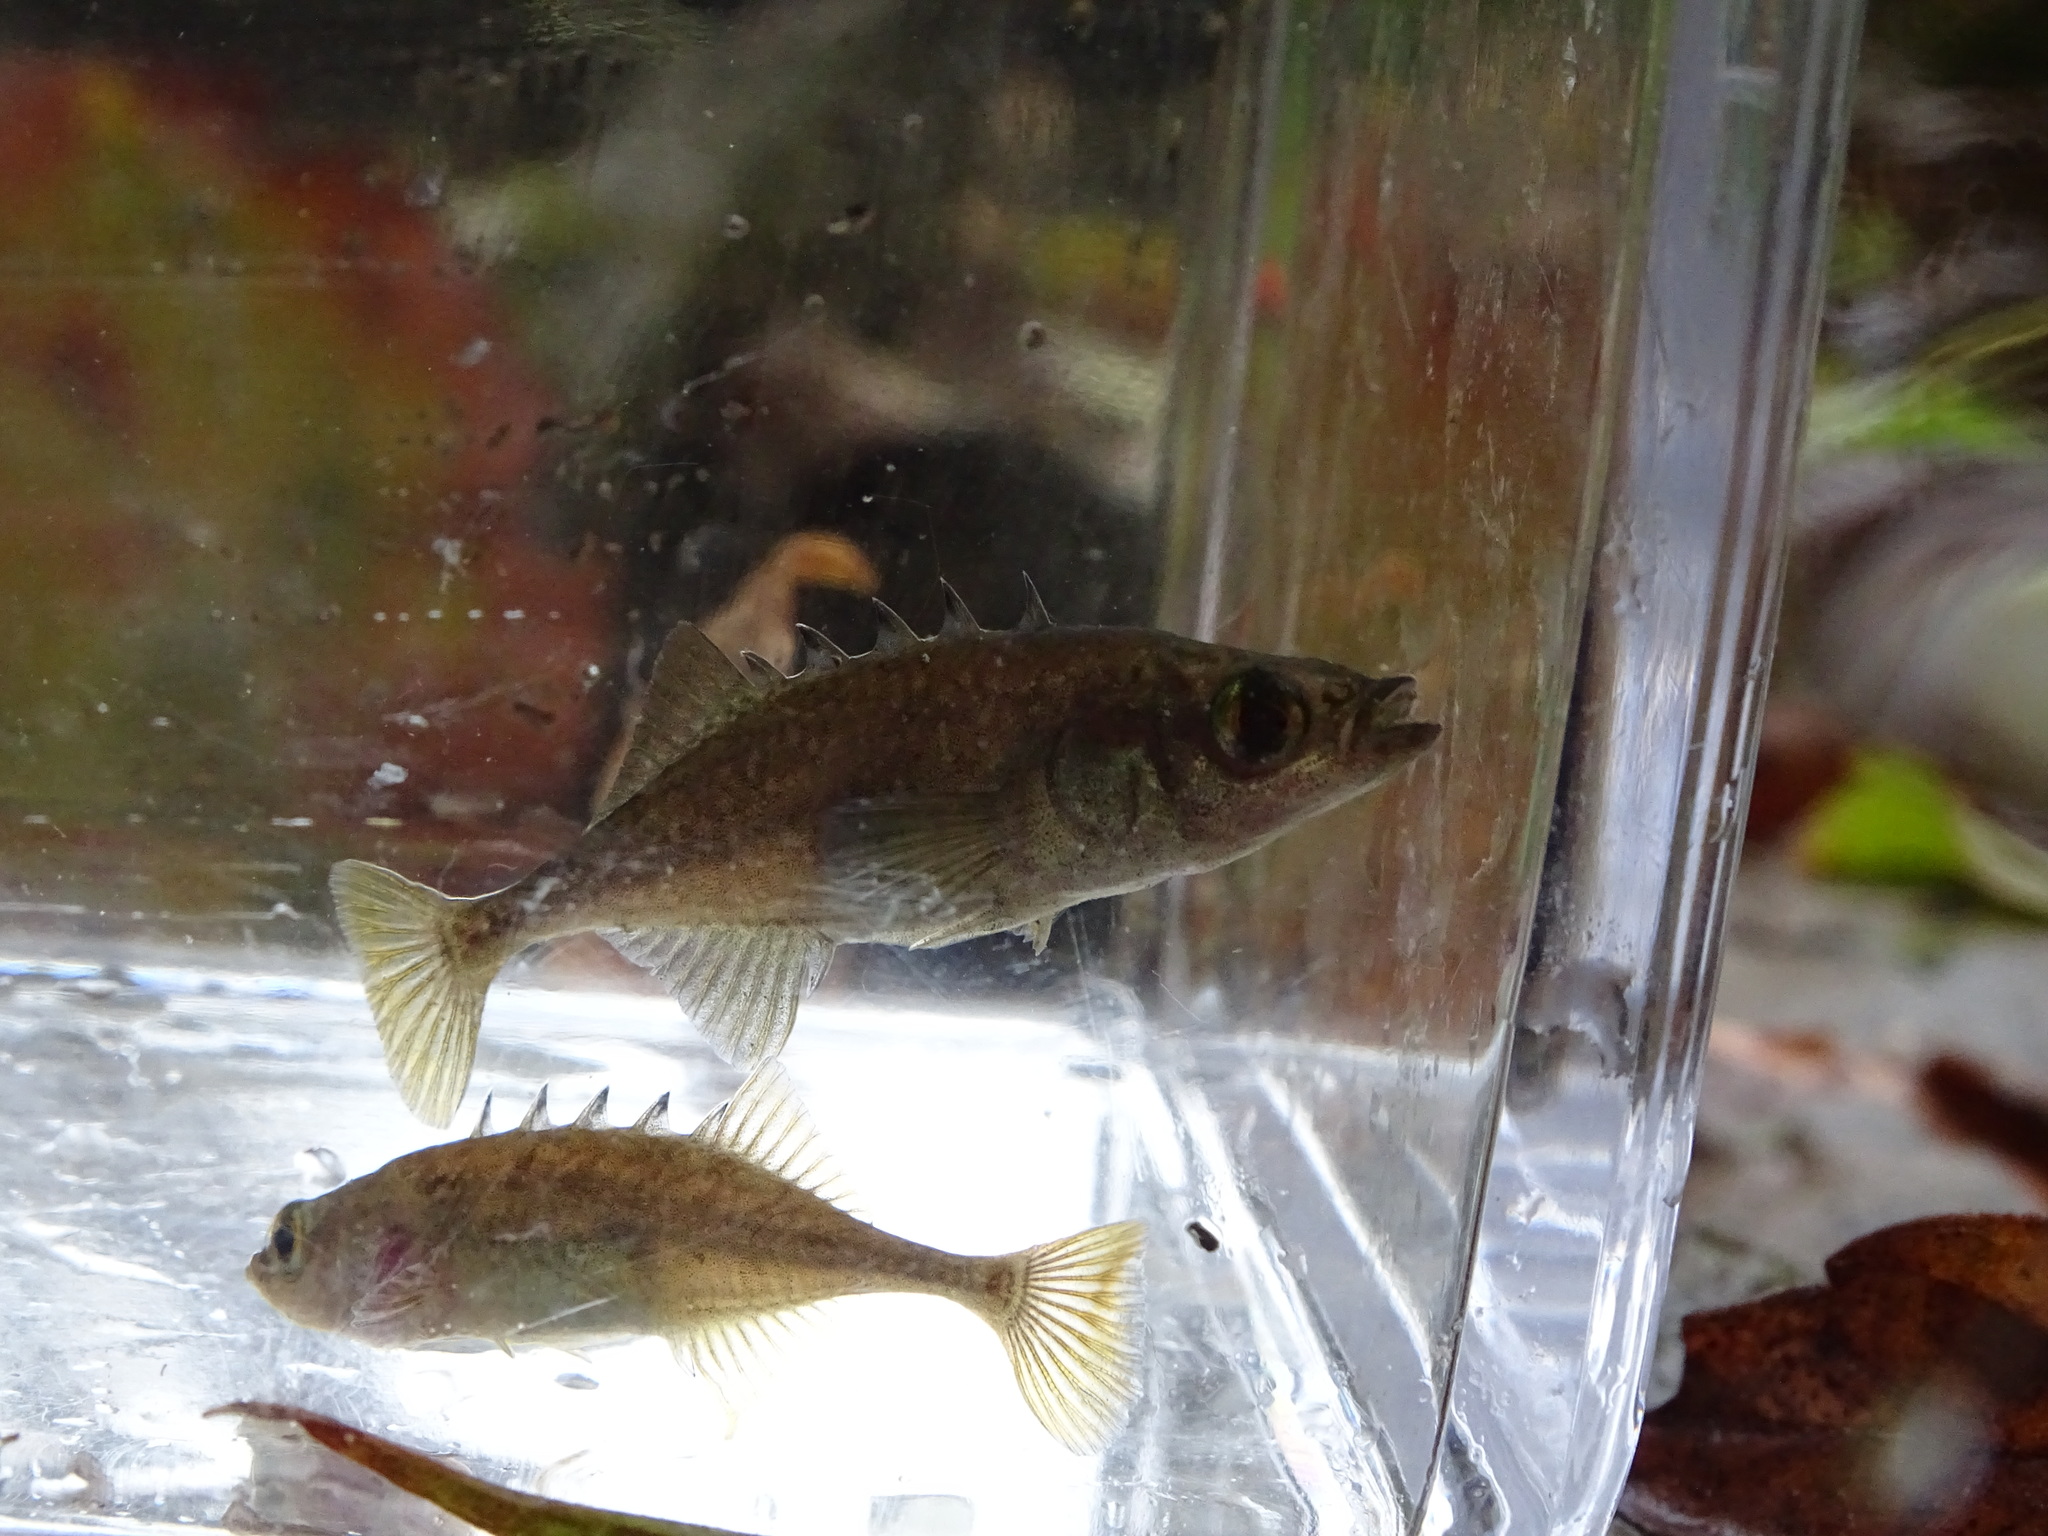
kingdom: Animalia
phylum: Chordata
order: Gasterosteiformes
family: Gasterosteidae
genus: Culaea
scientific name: Culaea inconstans
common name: Brook stickleback
